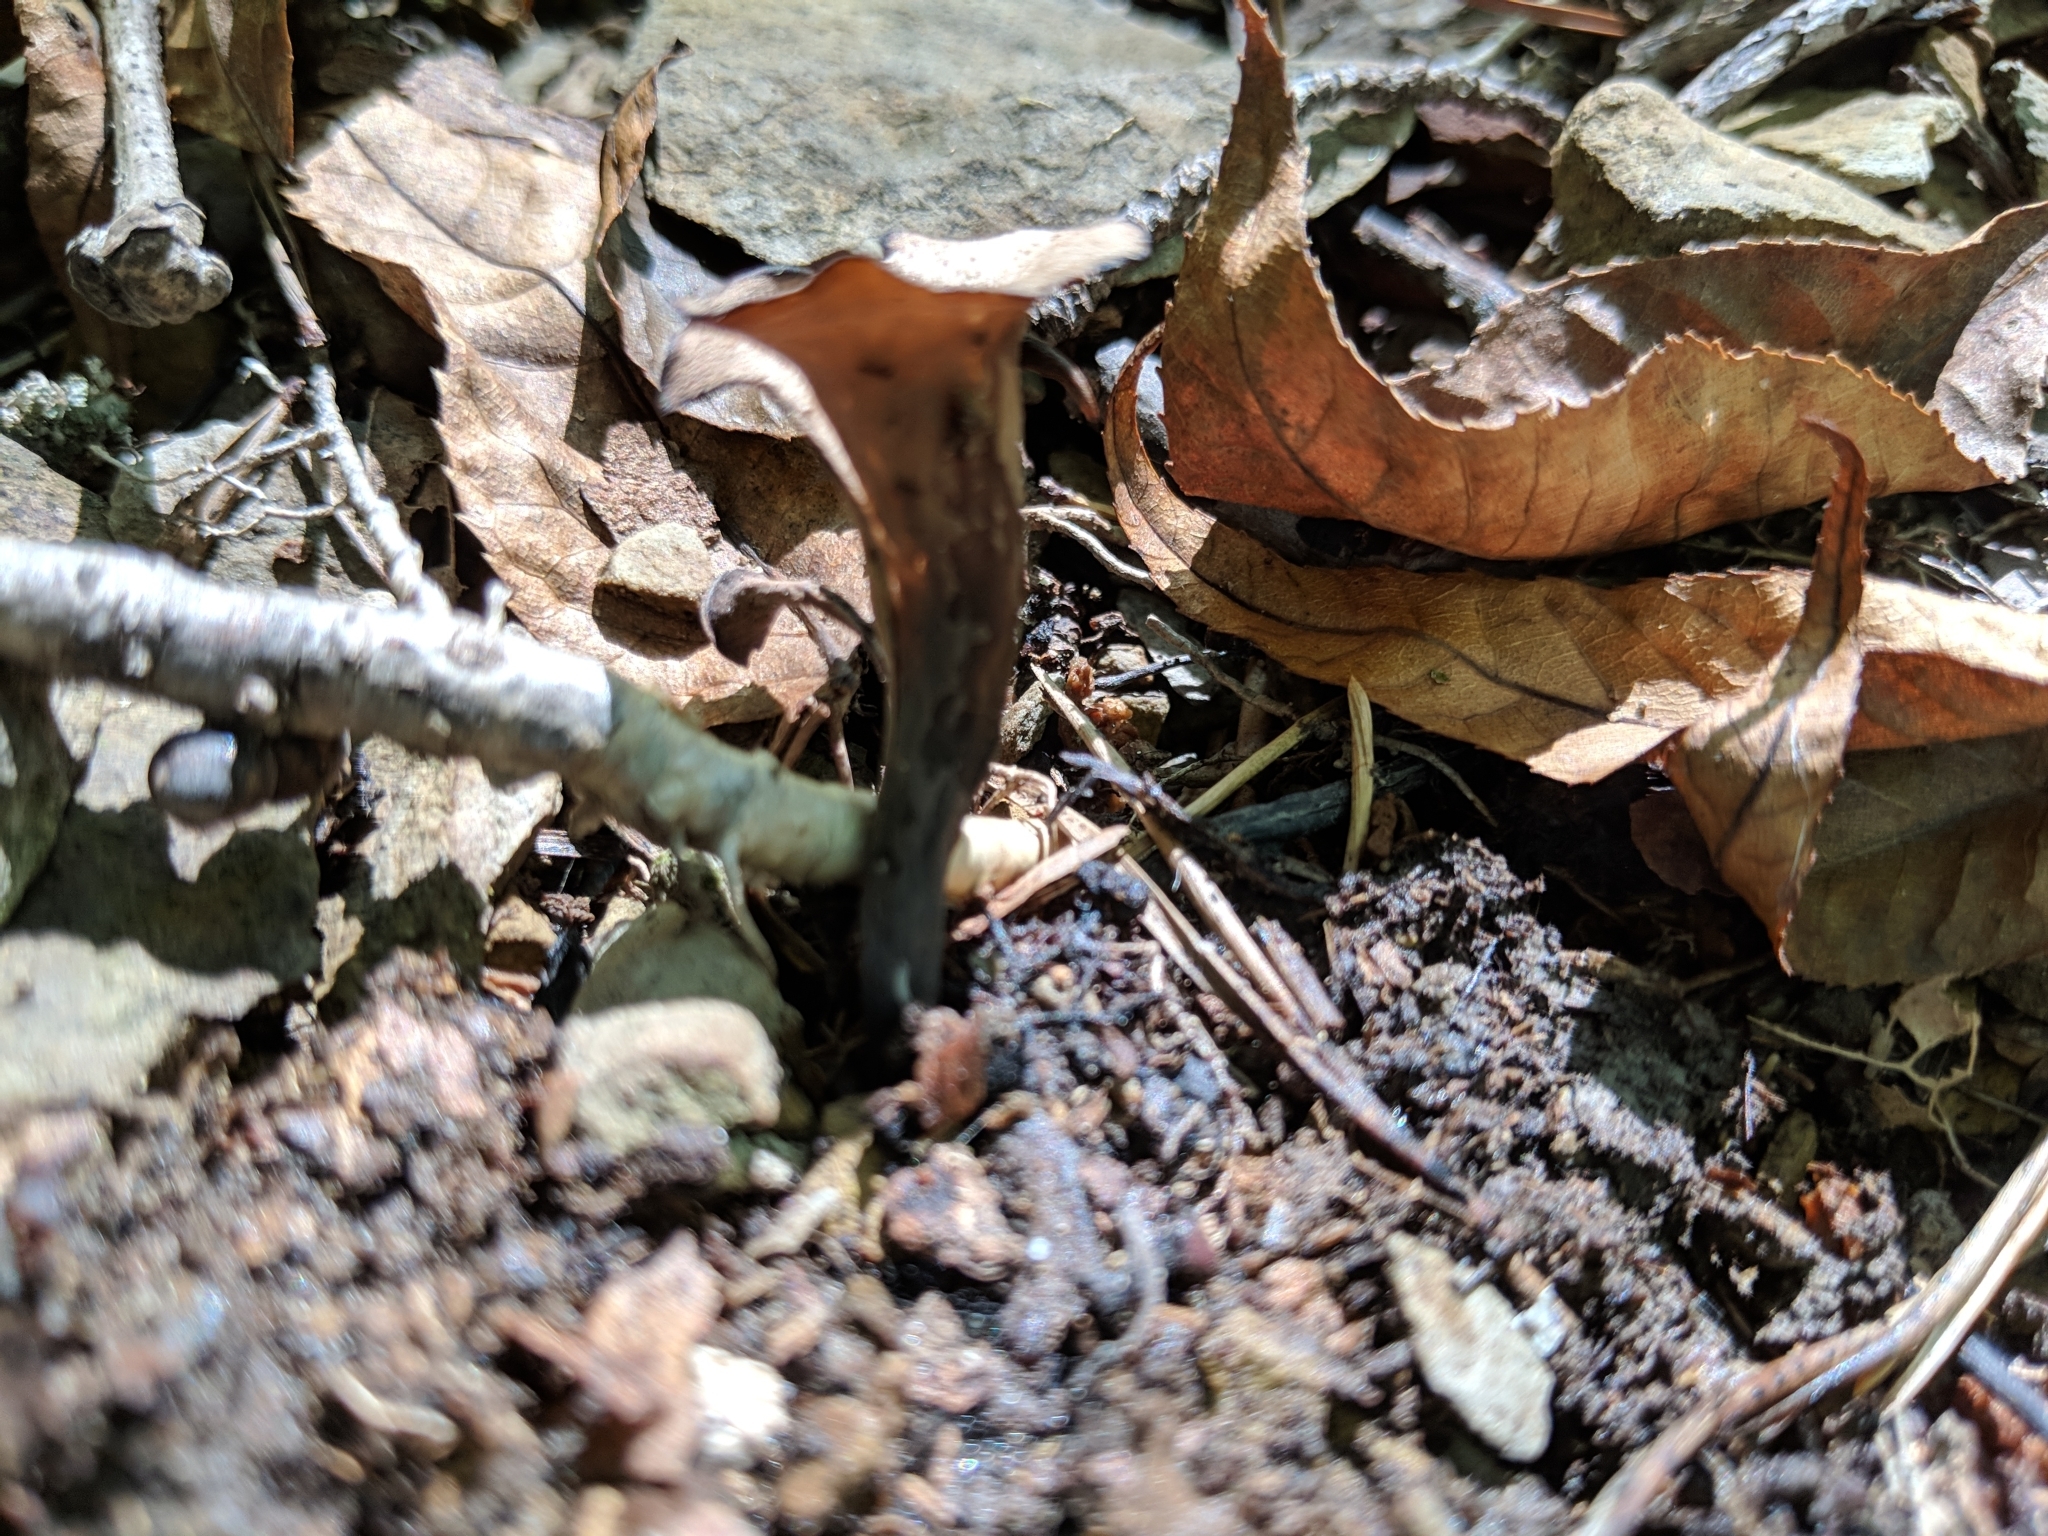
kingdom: Fungi
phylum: Basidiomycota
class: Agaricomycetes
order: Cantharellales
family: Hydnaceae
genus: Craterellus
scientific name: Craterellus cornucopioides
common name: Horn of plenty
